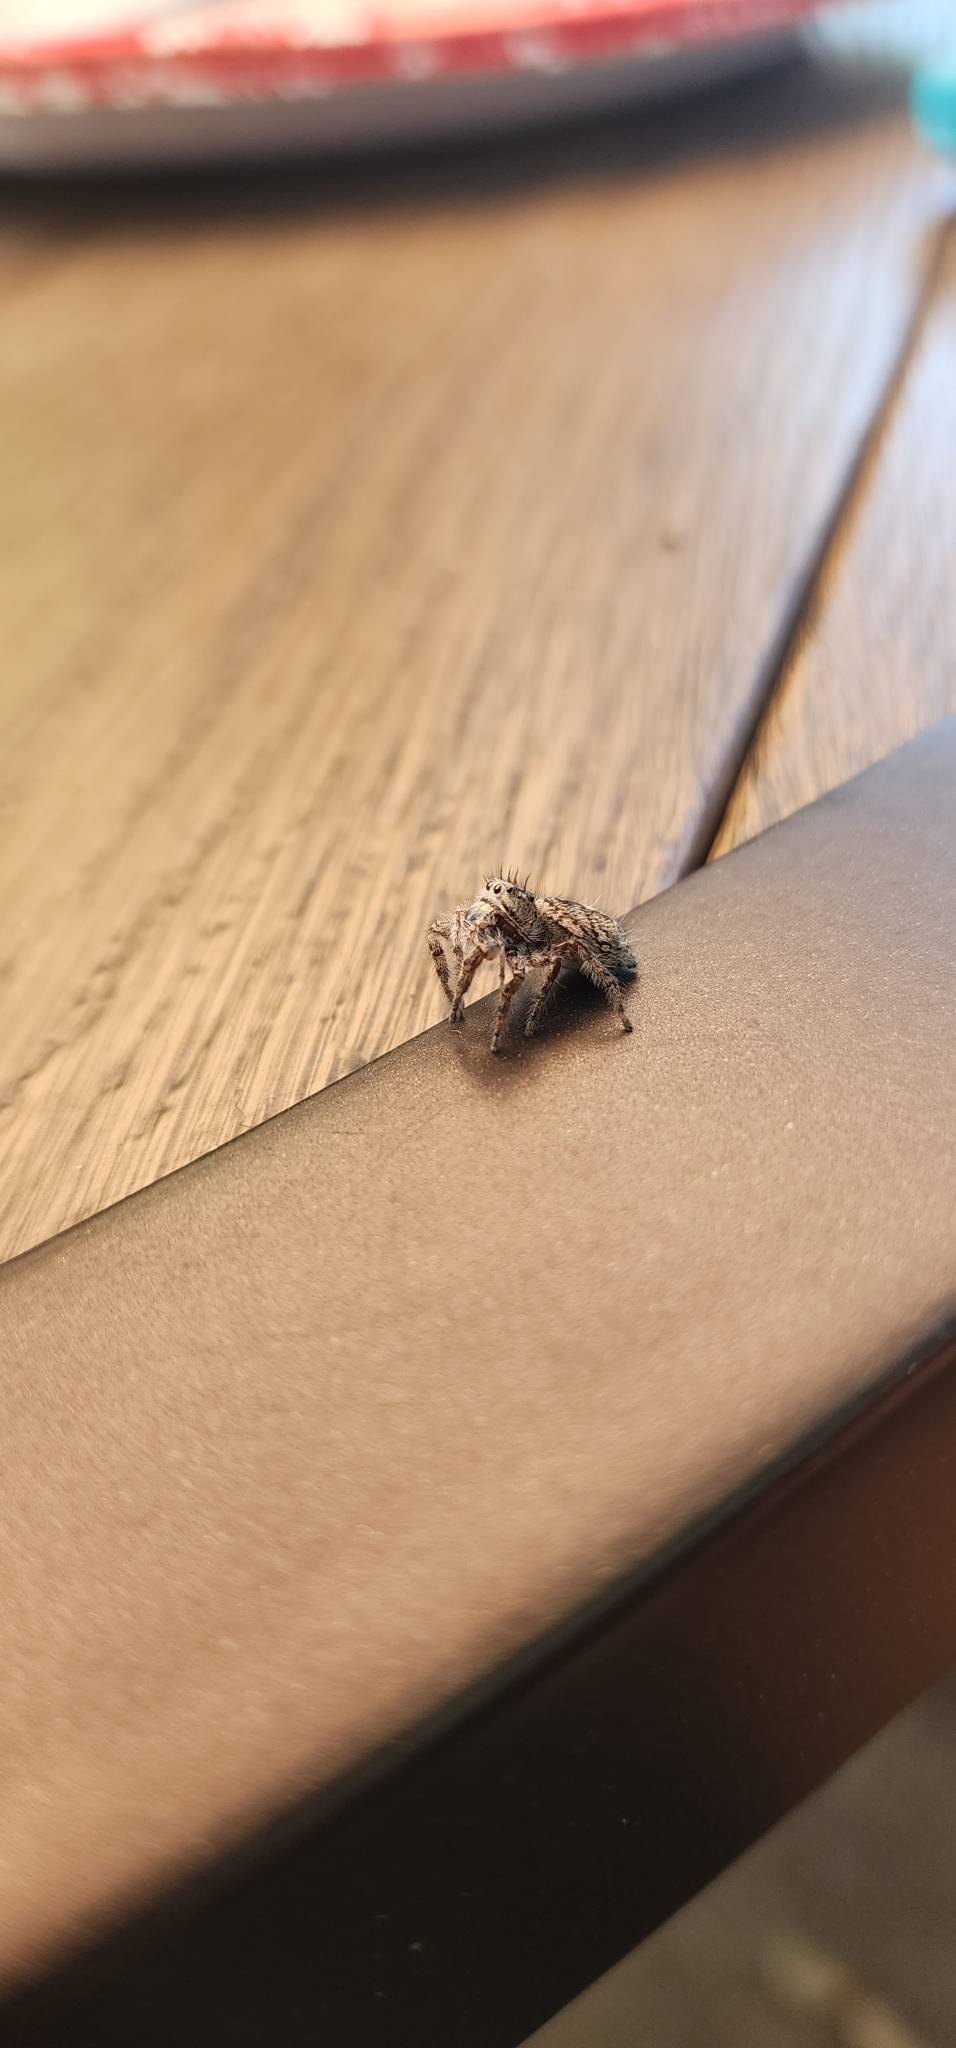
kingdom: Animalia
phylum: Arthropoda
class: Arachnida
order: Araneae
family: Salticidae
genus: Platycryptus
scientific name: Platycryptus undatus
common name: Tan jumping spider
